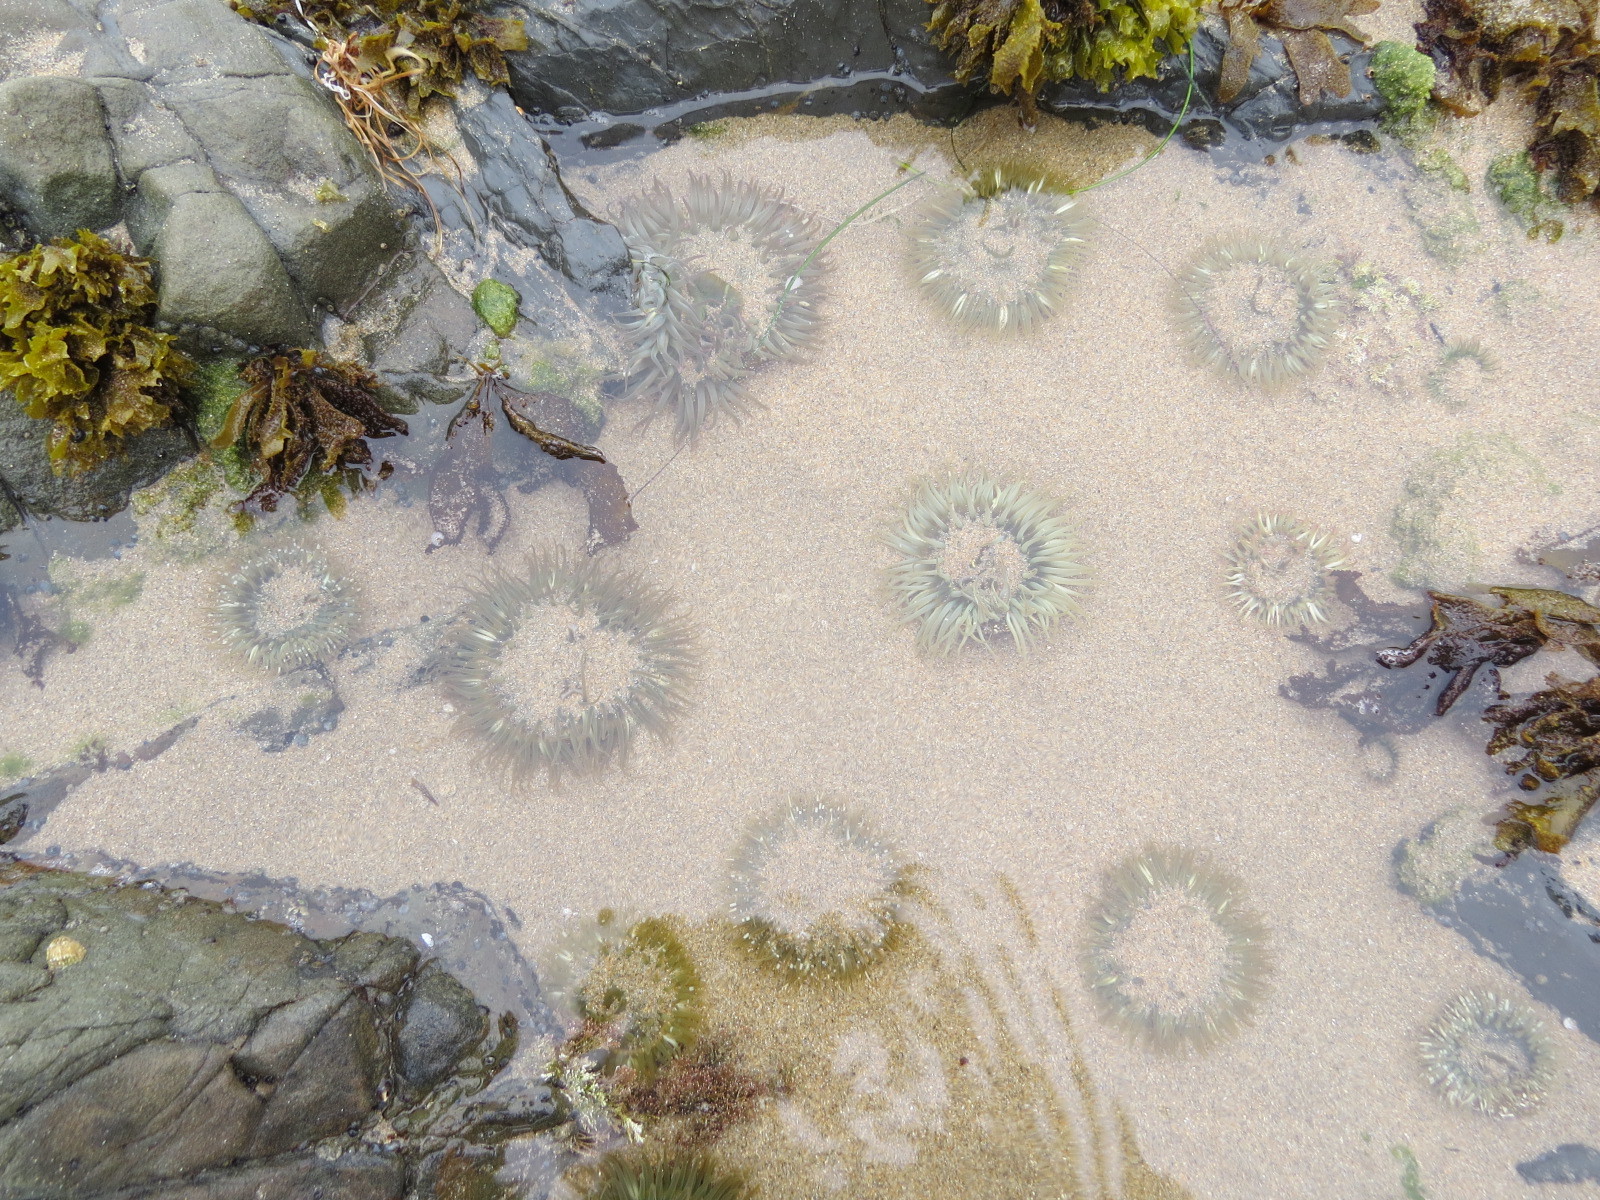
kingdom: Animalia
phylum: Cnidaria
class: Anthozoa
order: Actiniaria
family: Actiniidae
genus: Anthopleura
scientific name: Anthopleura sola
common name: Sun anemone
